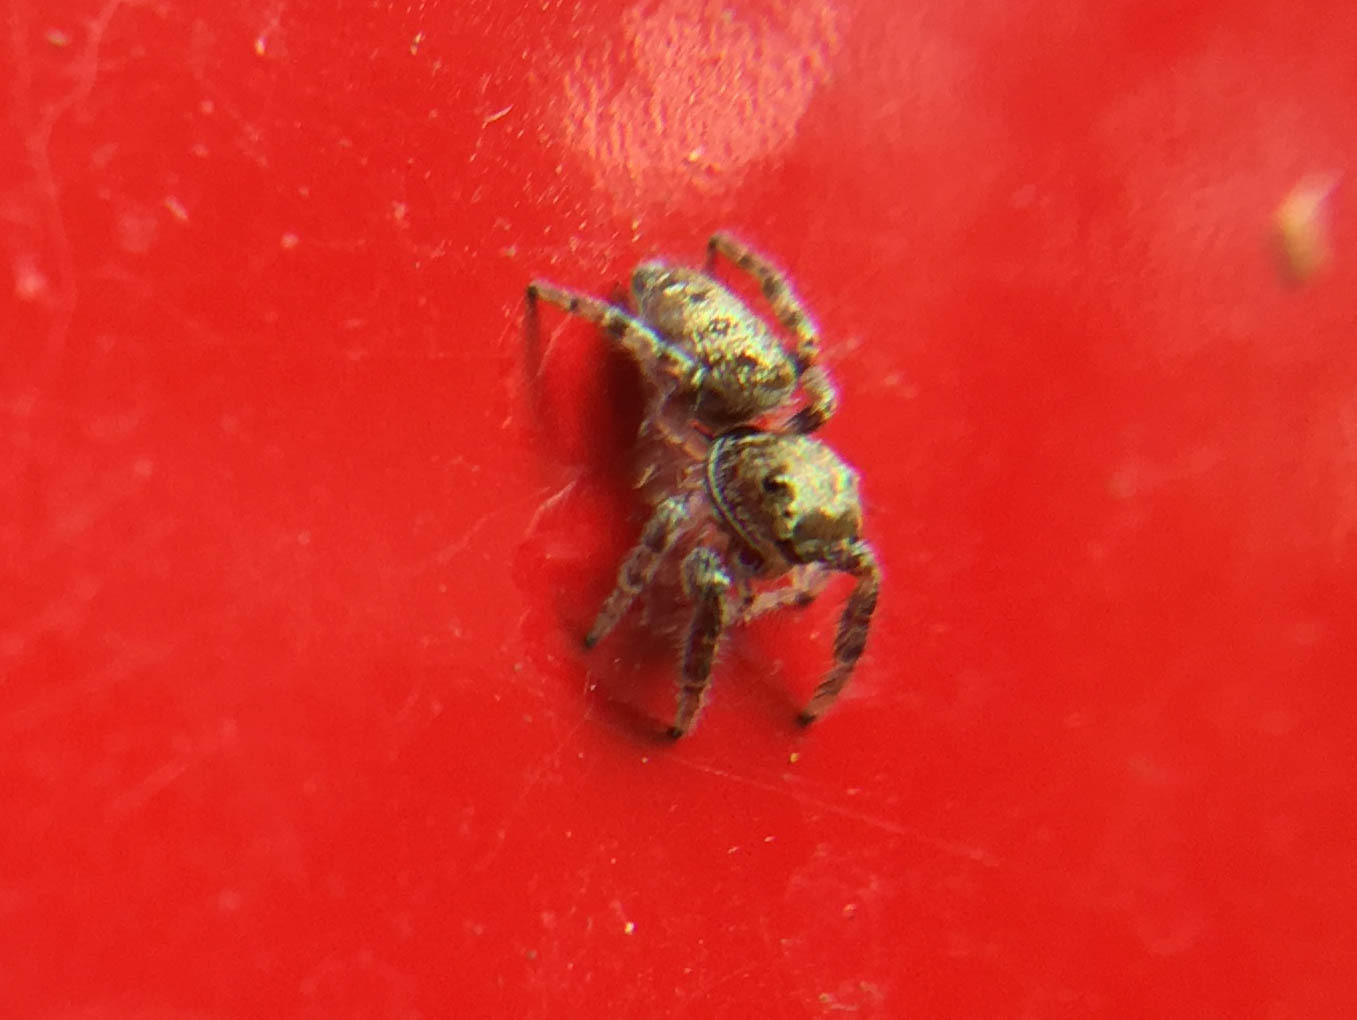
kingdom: Animalia
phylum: Arthropoda
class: Arachnida
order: Araneae
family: Salticidae
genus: Eris
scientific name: Eris
